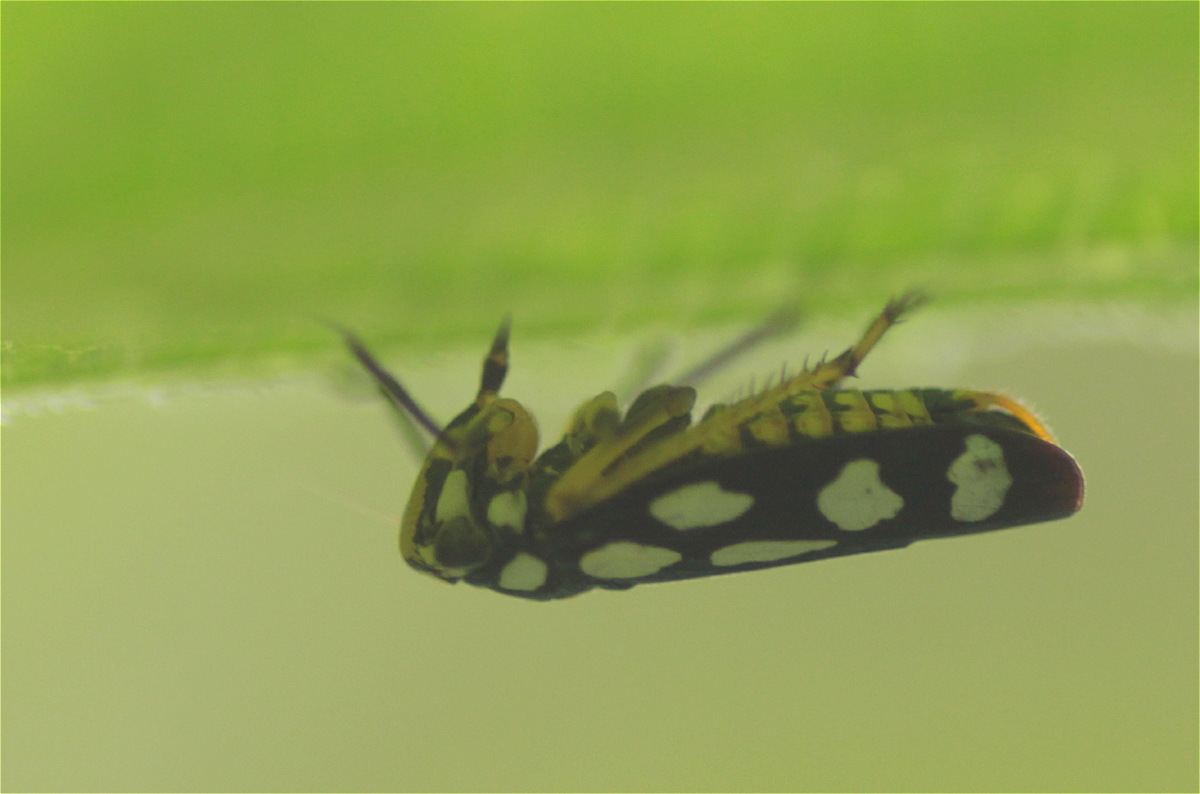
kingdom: Animalia
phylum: Arthropoda
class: Insecta
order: Hemiptera
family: Cicadellidae
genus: Stehlikiana
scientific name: Stehlikiana crassa
